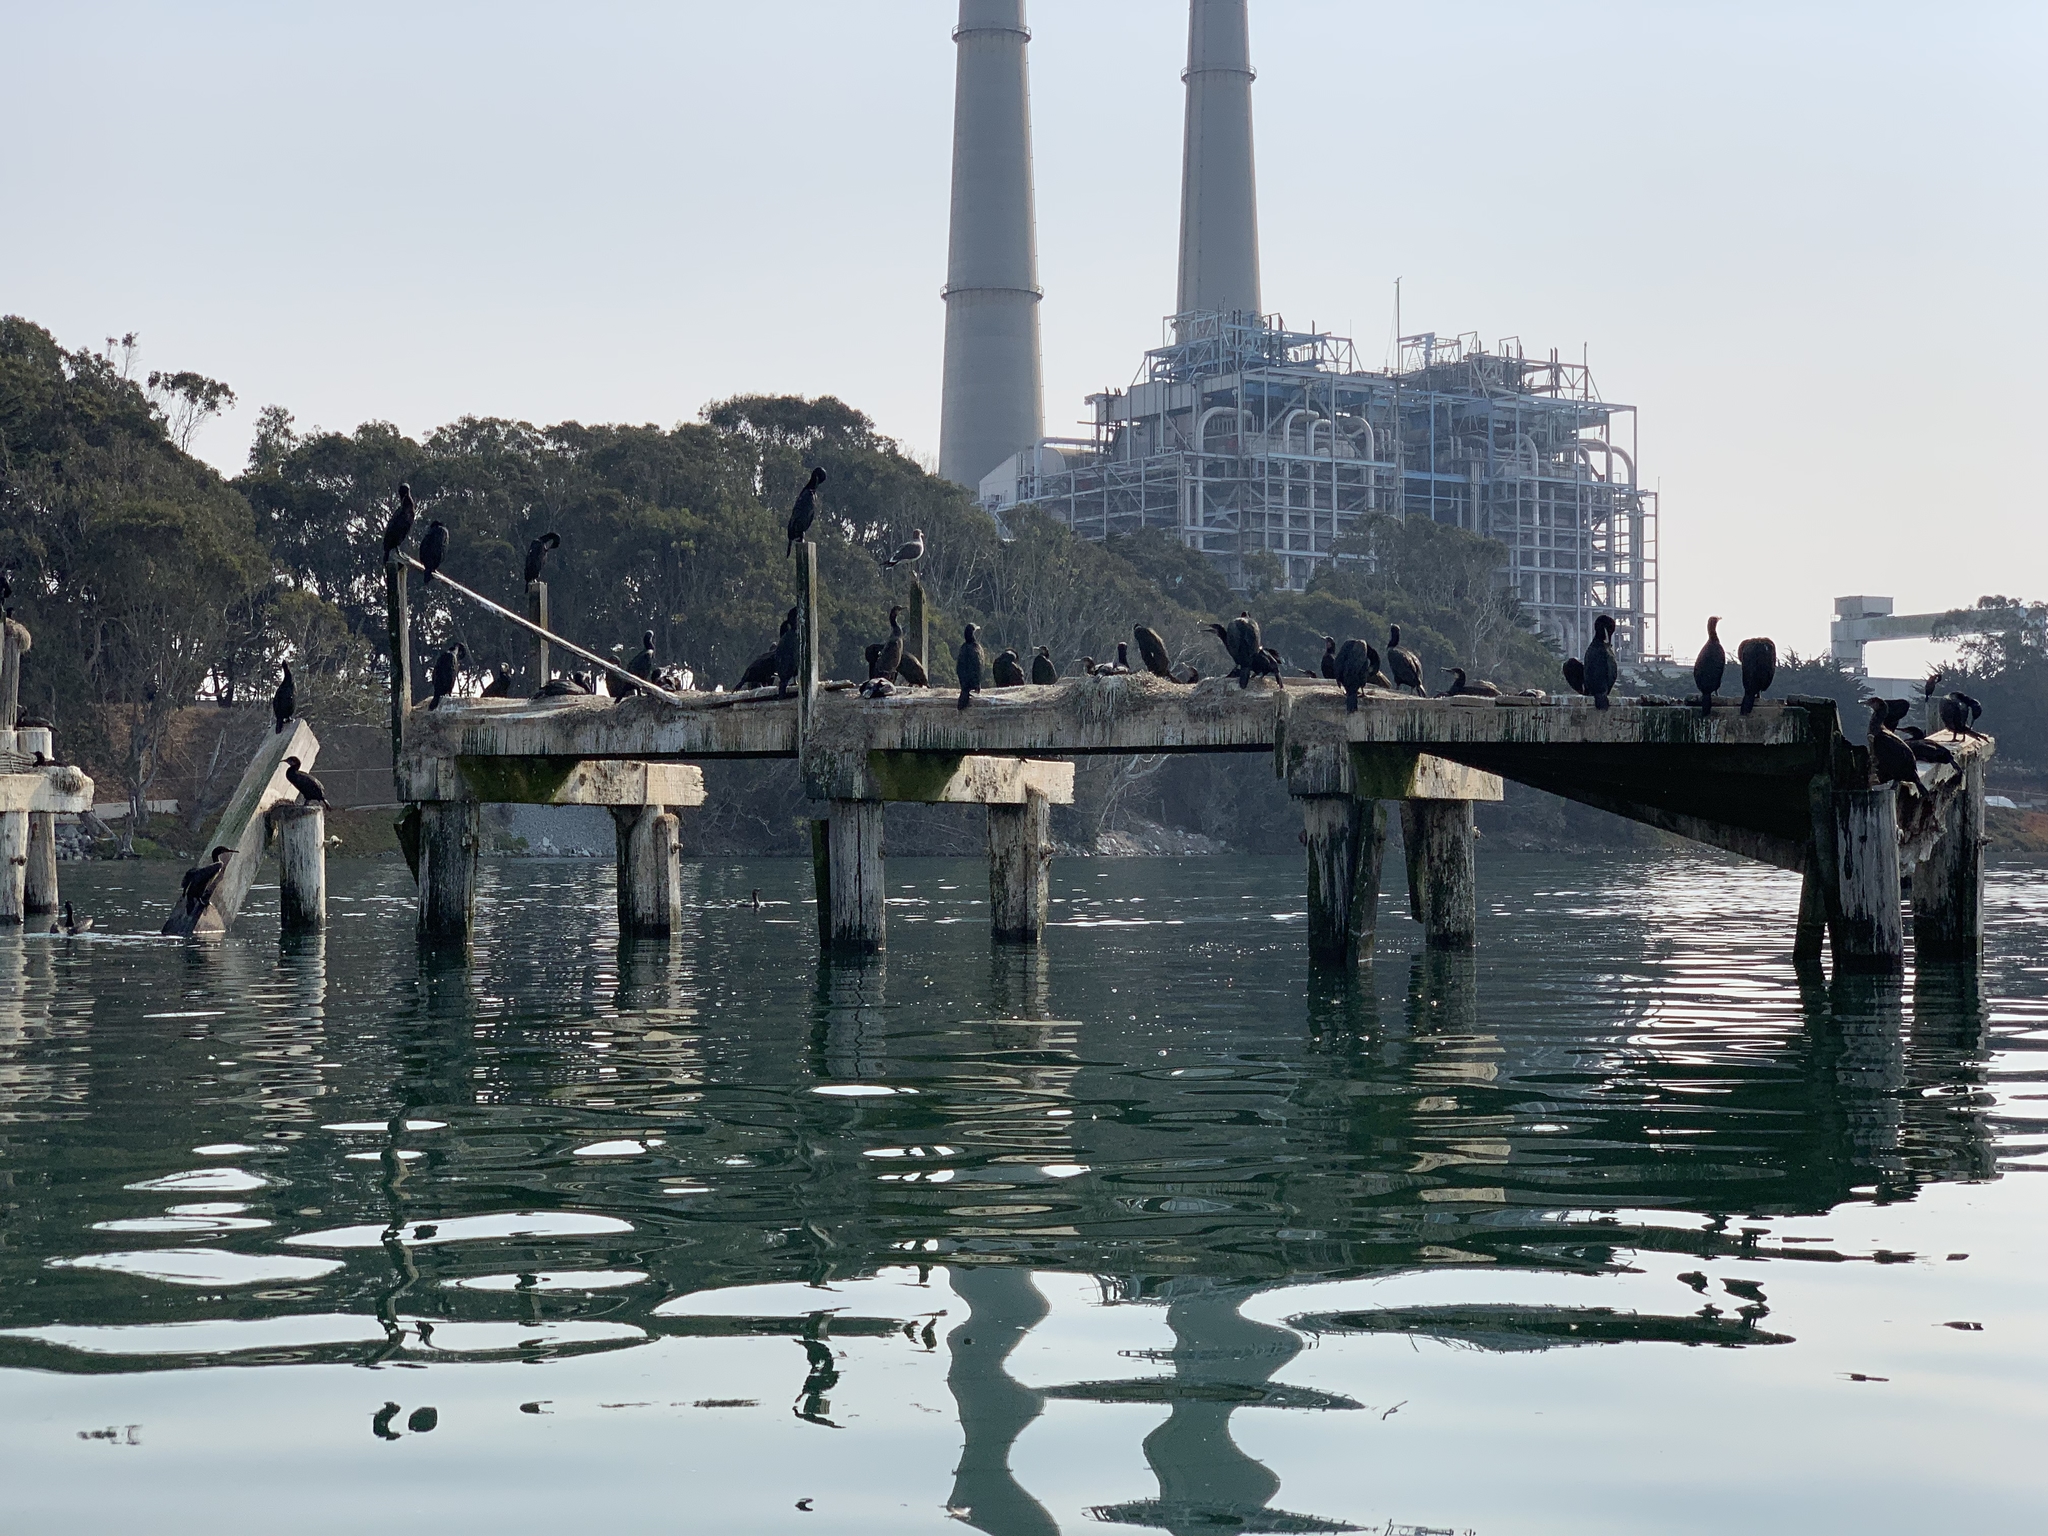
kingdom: Animalia
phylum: Chordata
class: Aves
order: Suliformes
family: Phalacrocoracidae
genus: Urile
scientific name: Urile penicillatus
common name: Brandt's cormorant
